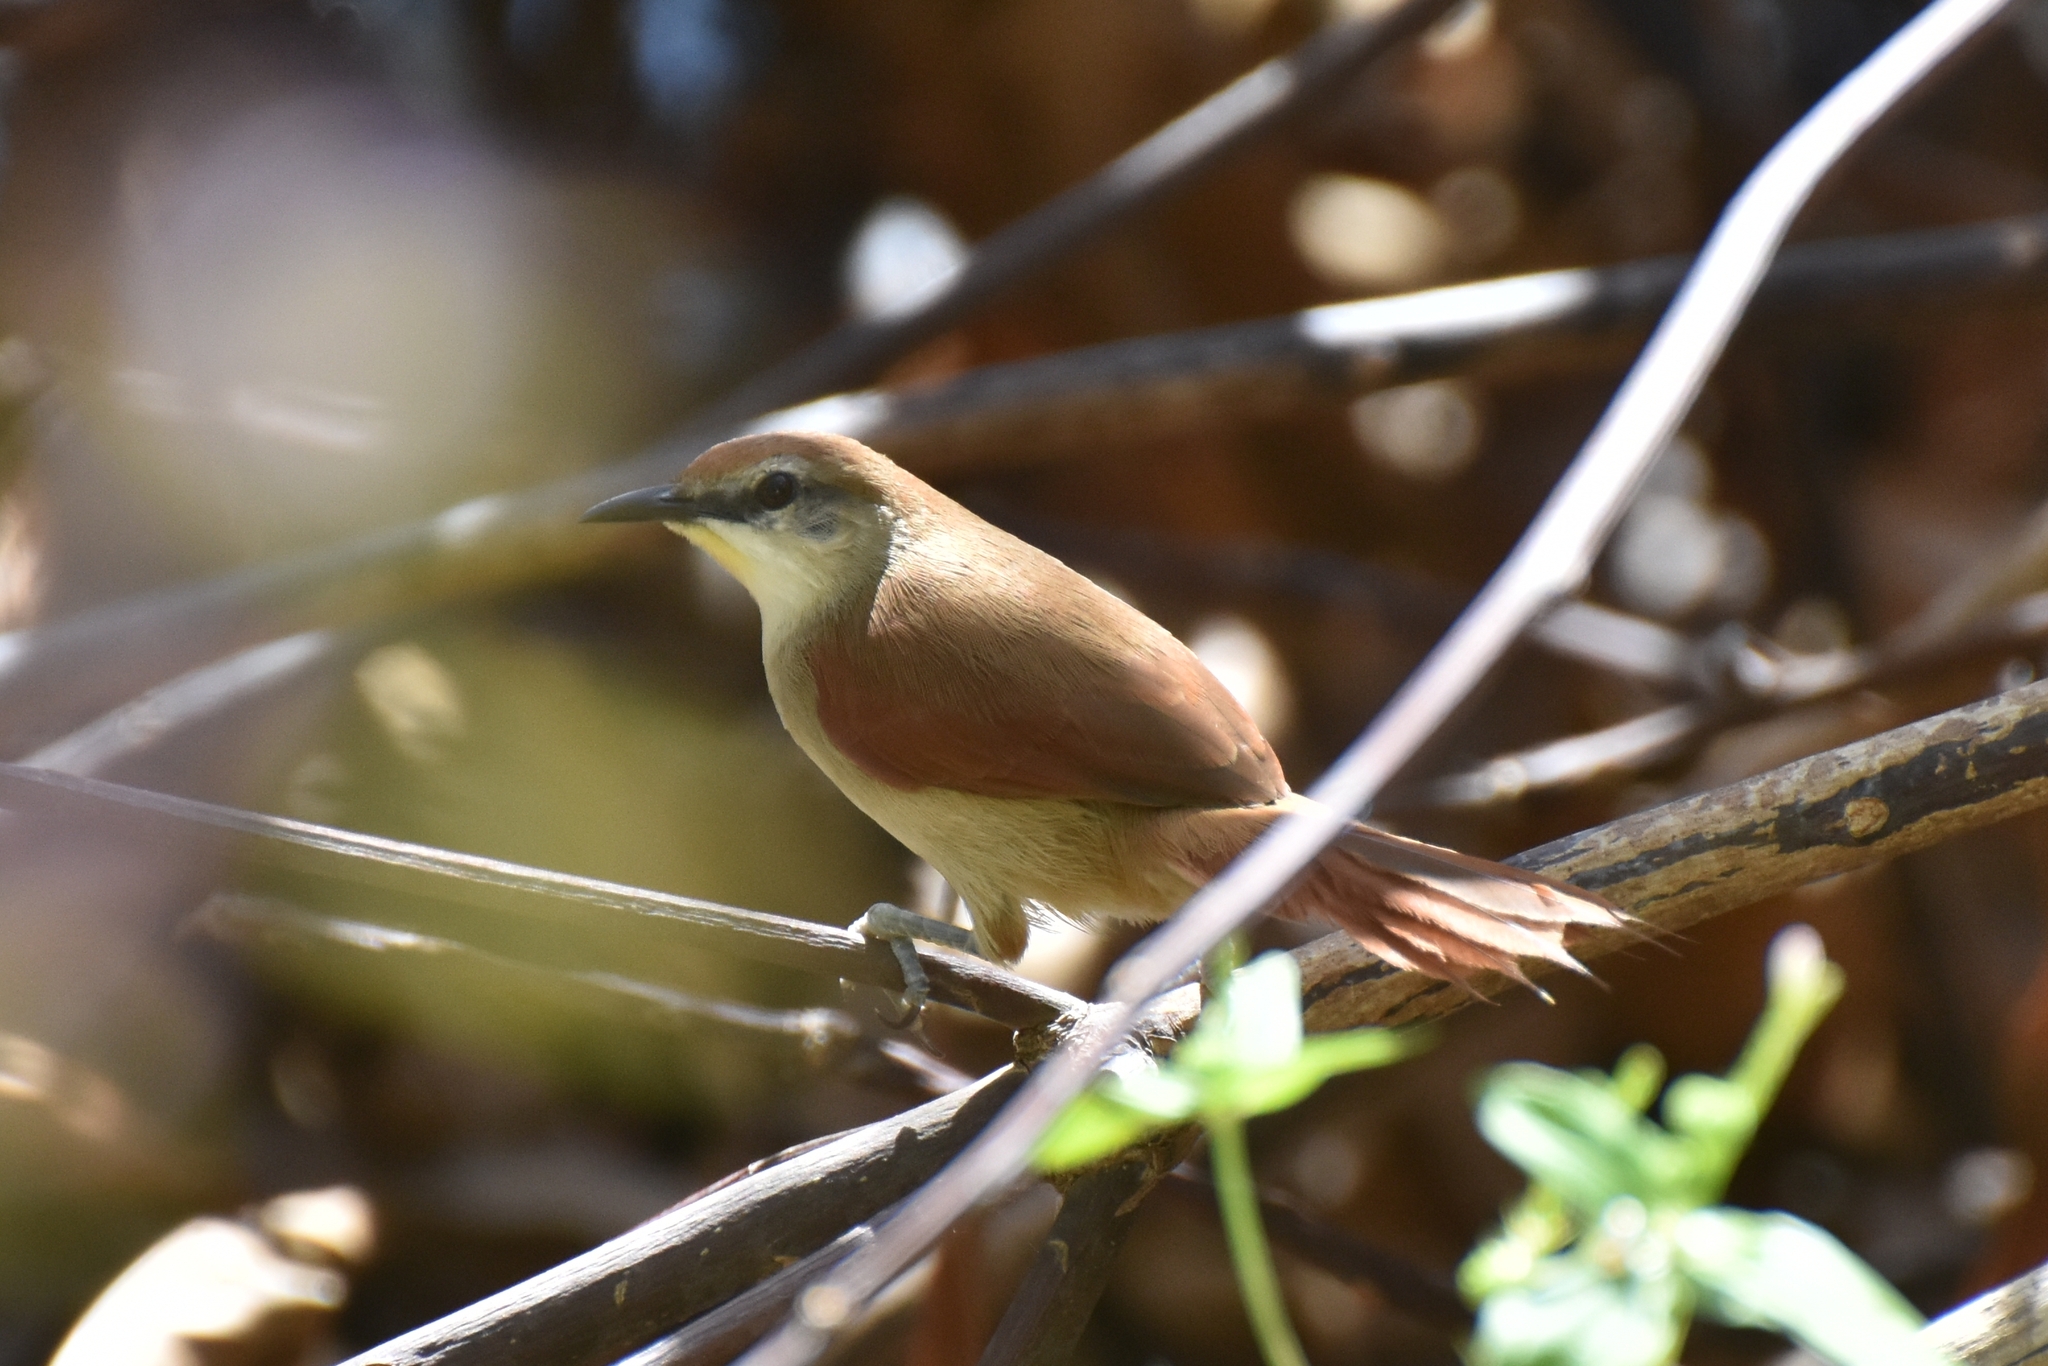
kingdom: Animalia
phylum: Chordata
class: Aves
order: Passeriformes
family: Furnariidae
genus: Certhiaxis
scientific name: Certhiaxis cinnamomeus
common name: Yellow-chinned spinetail
